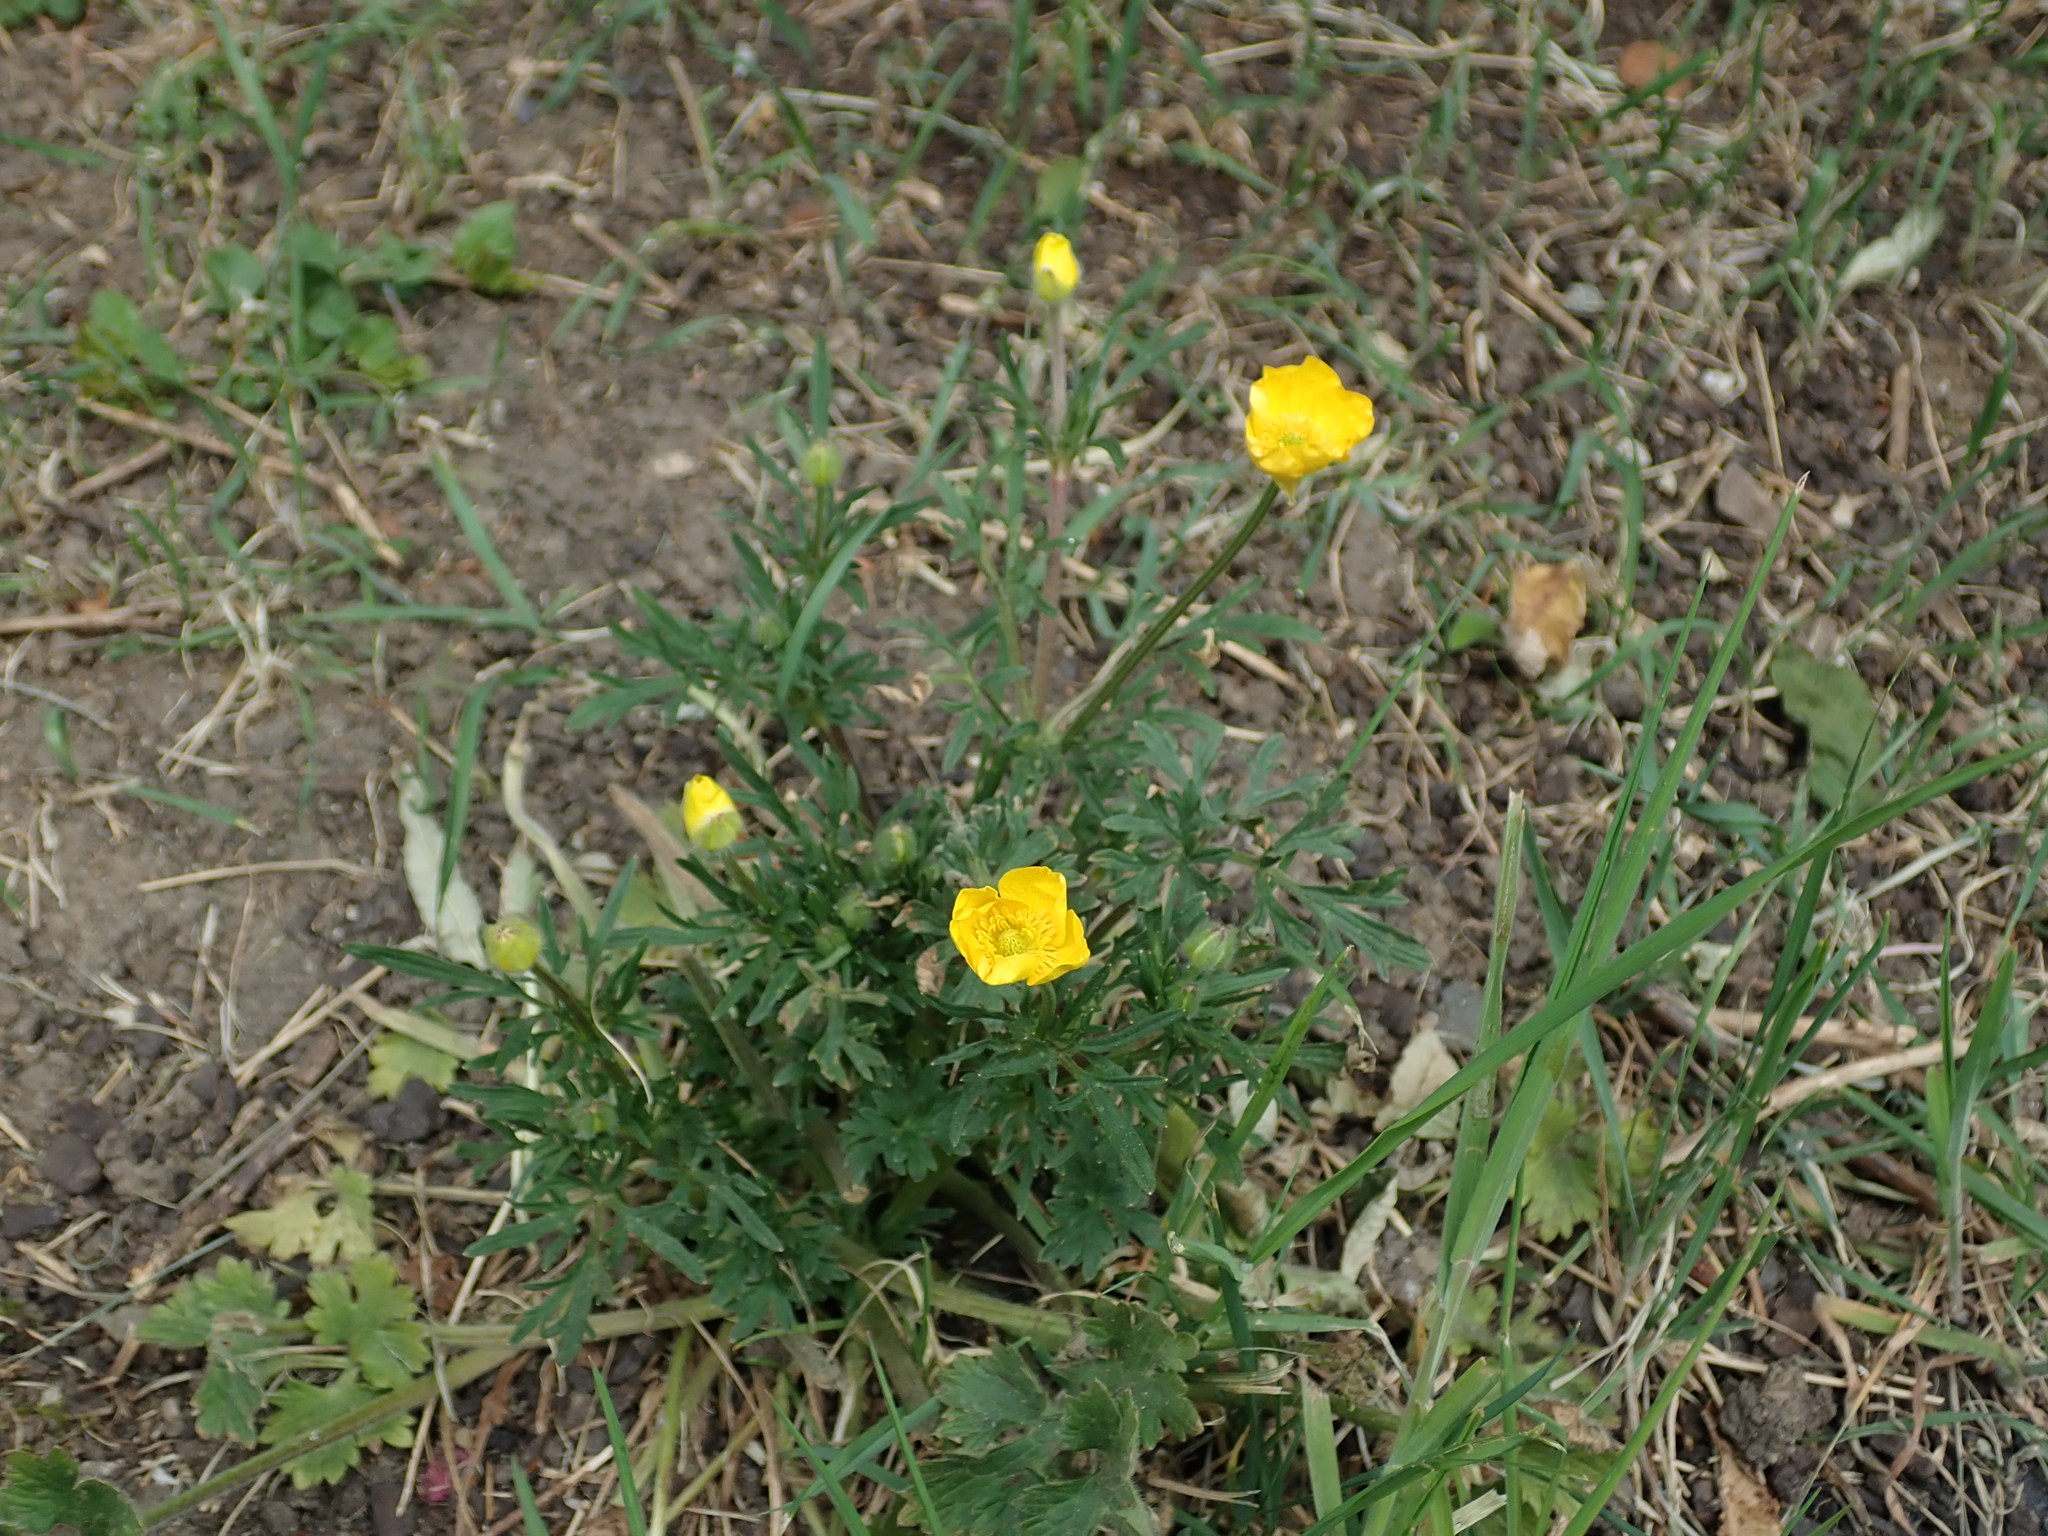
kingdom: Plantae
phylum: Tracheophyta
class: Magnoliopsida
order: Ranunculales
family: Ranunculaceae
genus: Ranunculus
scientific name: Ranunculus bulbosus
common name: Bulbous buttercup
